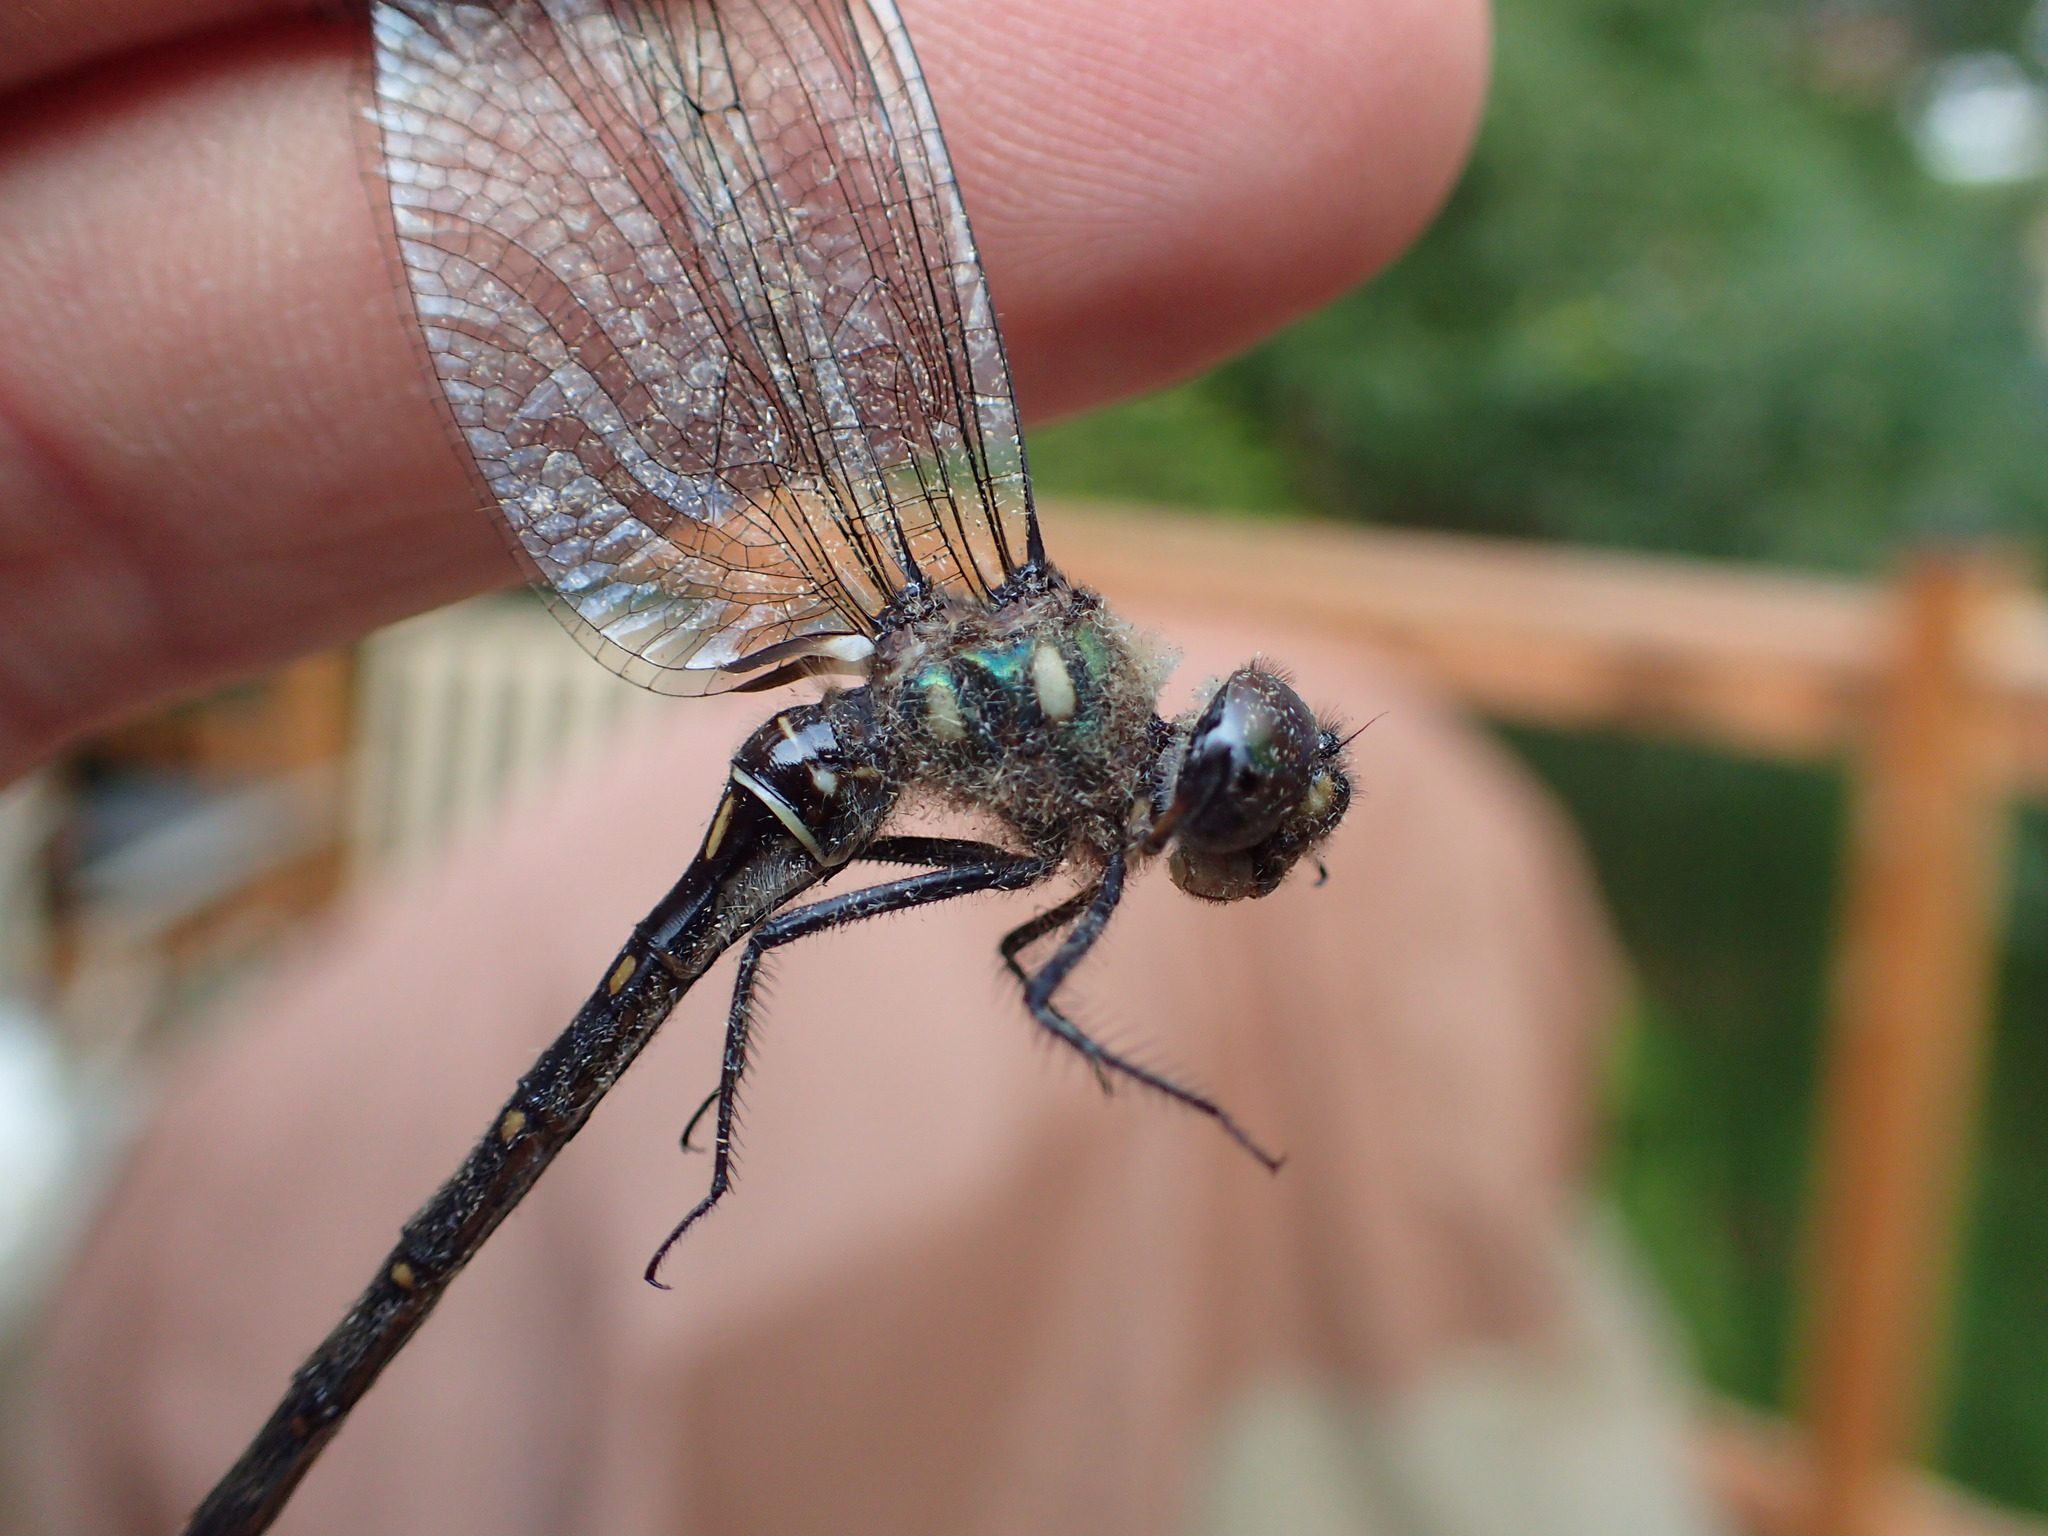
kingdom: Animalia
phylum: Arthropoda
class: Insecta
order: Odonata
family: Corduliidae
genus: Somatochlora
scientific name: Somatochlora forcipata
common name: Forcipate emerald
